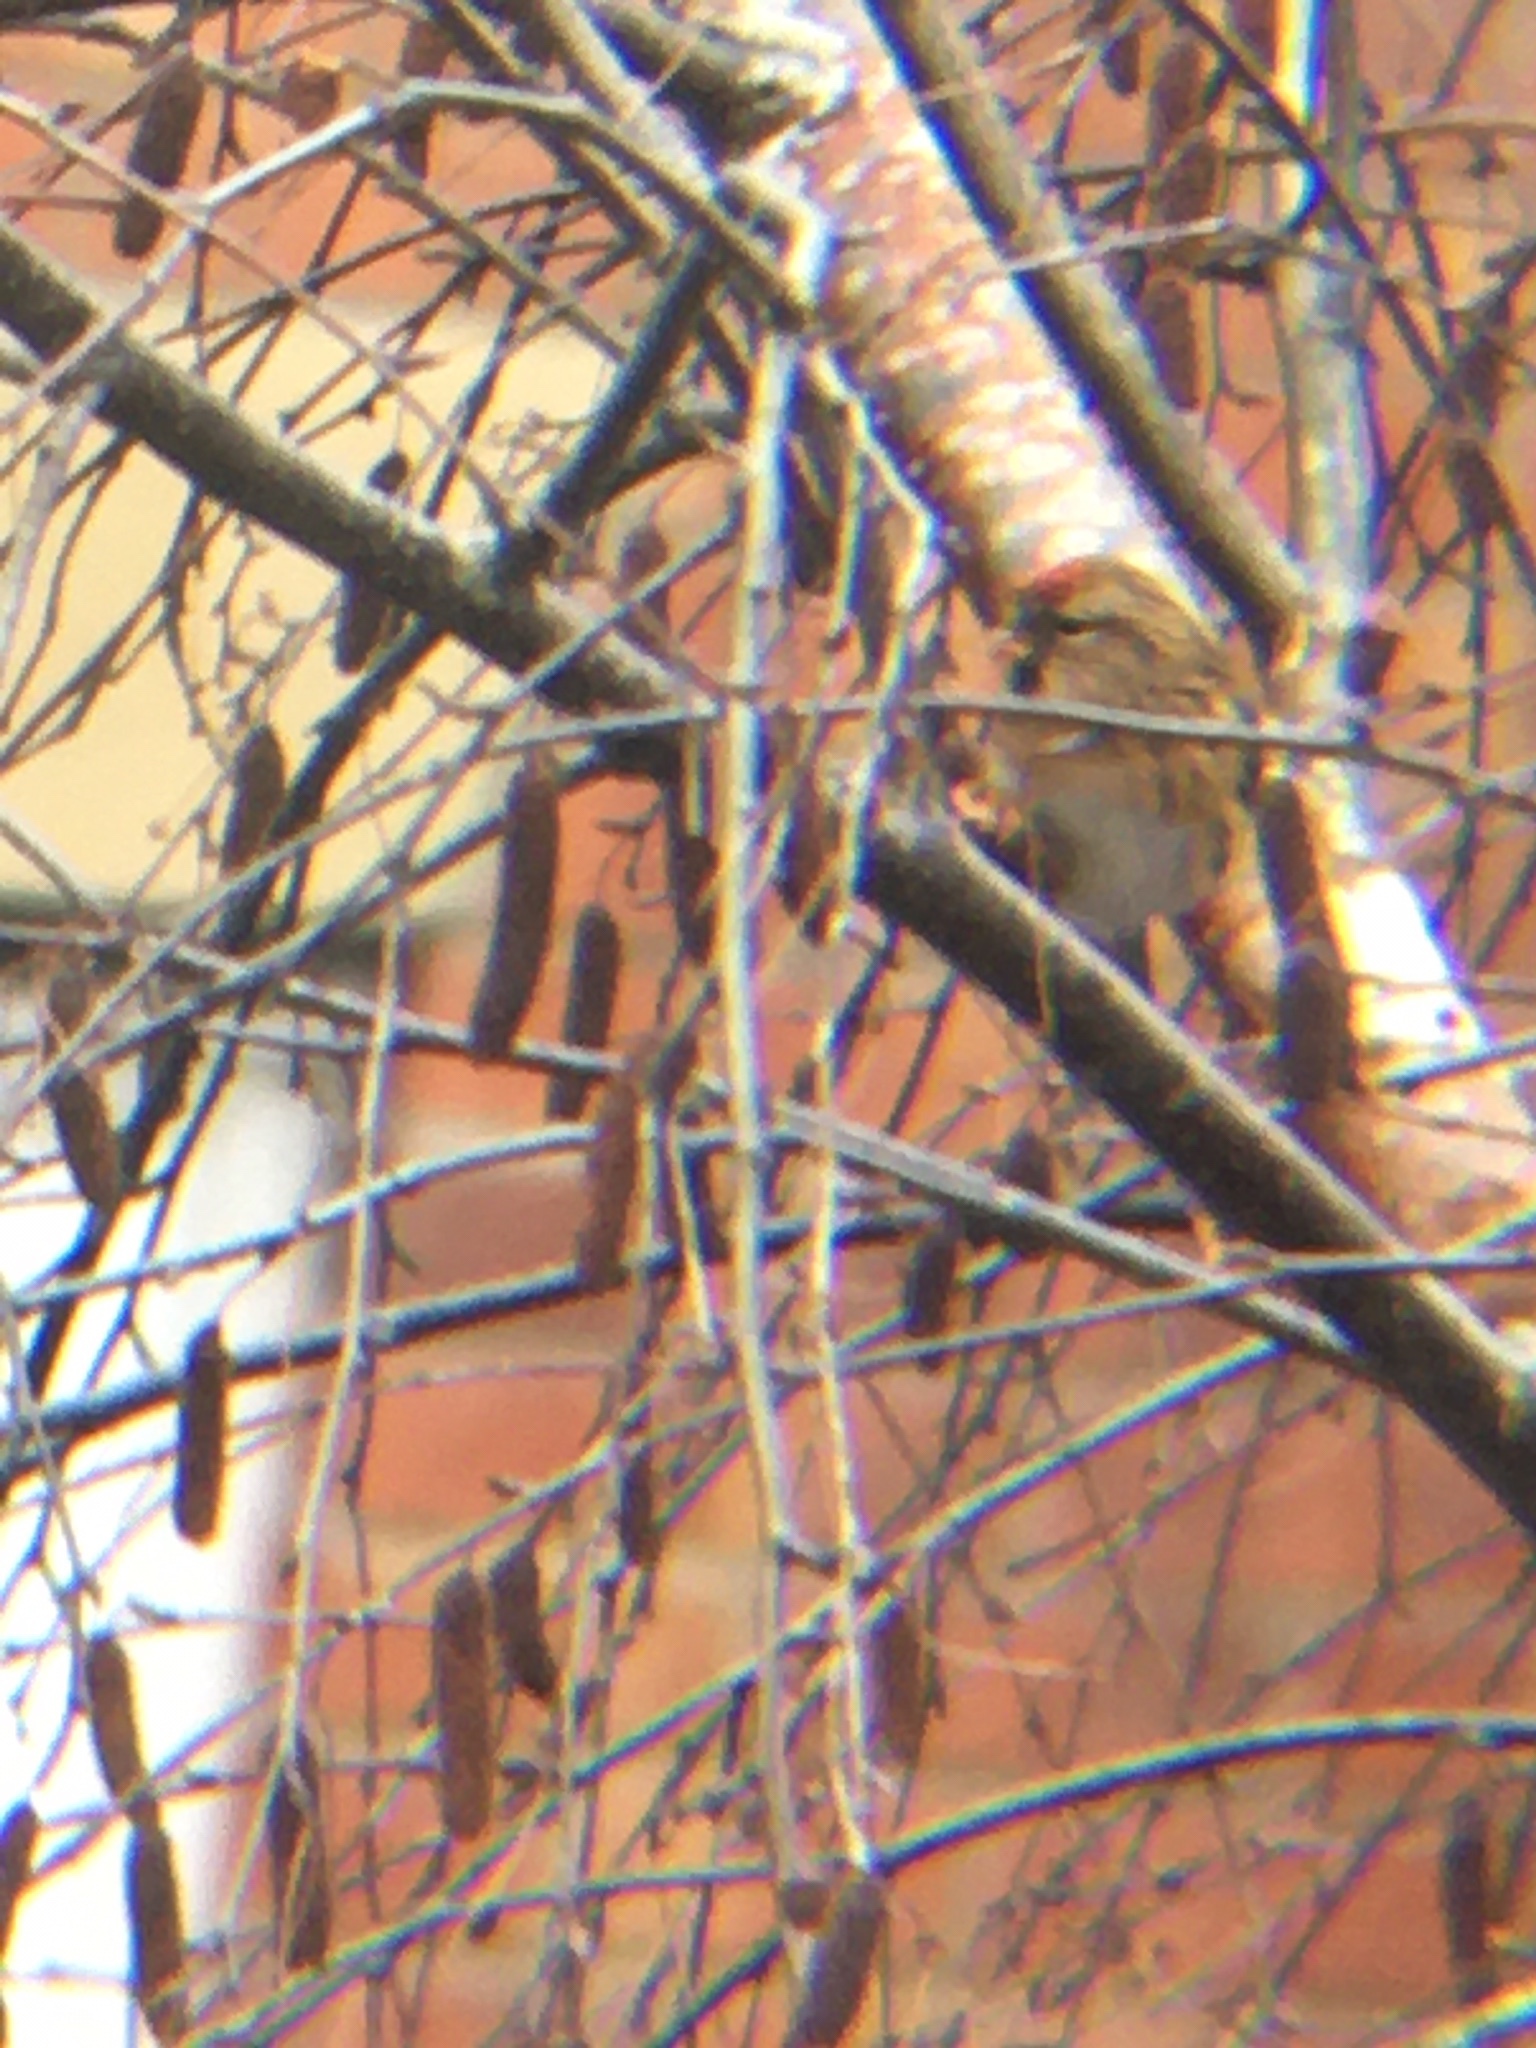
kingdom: Animalia
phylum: Chordata
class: Aves
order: Passeriformes
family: Fringillidae
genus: Acanthis
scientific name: Acanthis flammea
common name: Common redpoll
